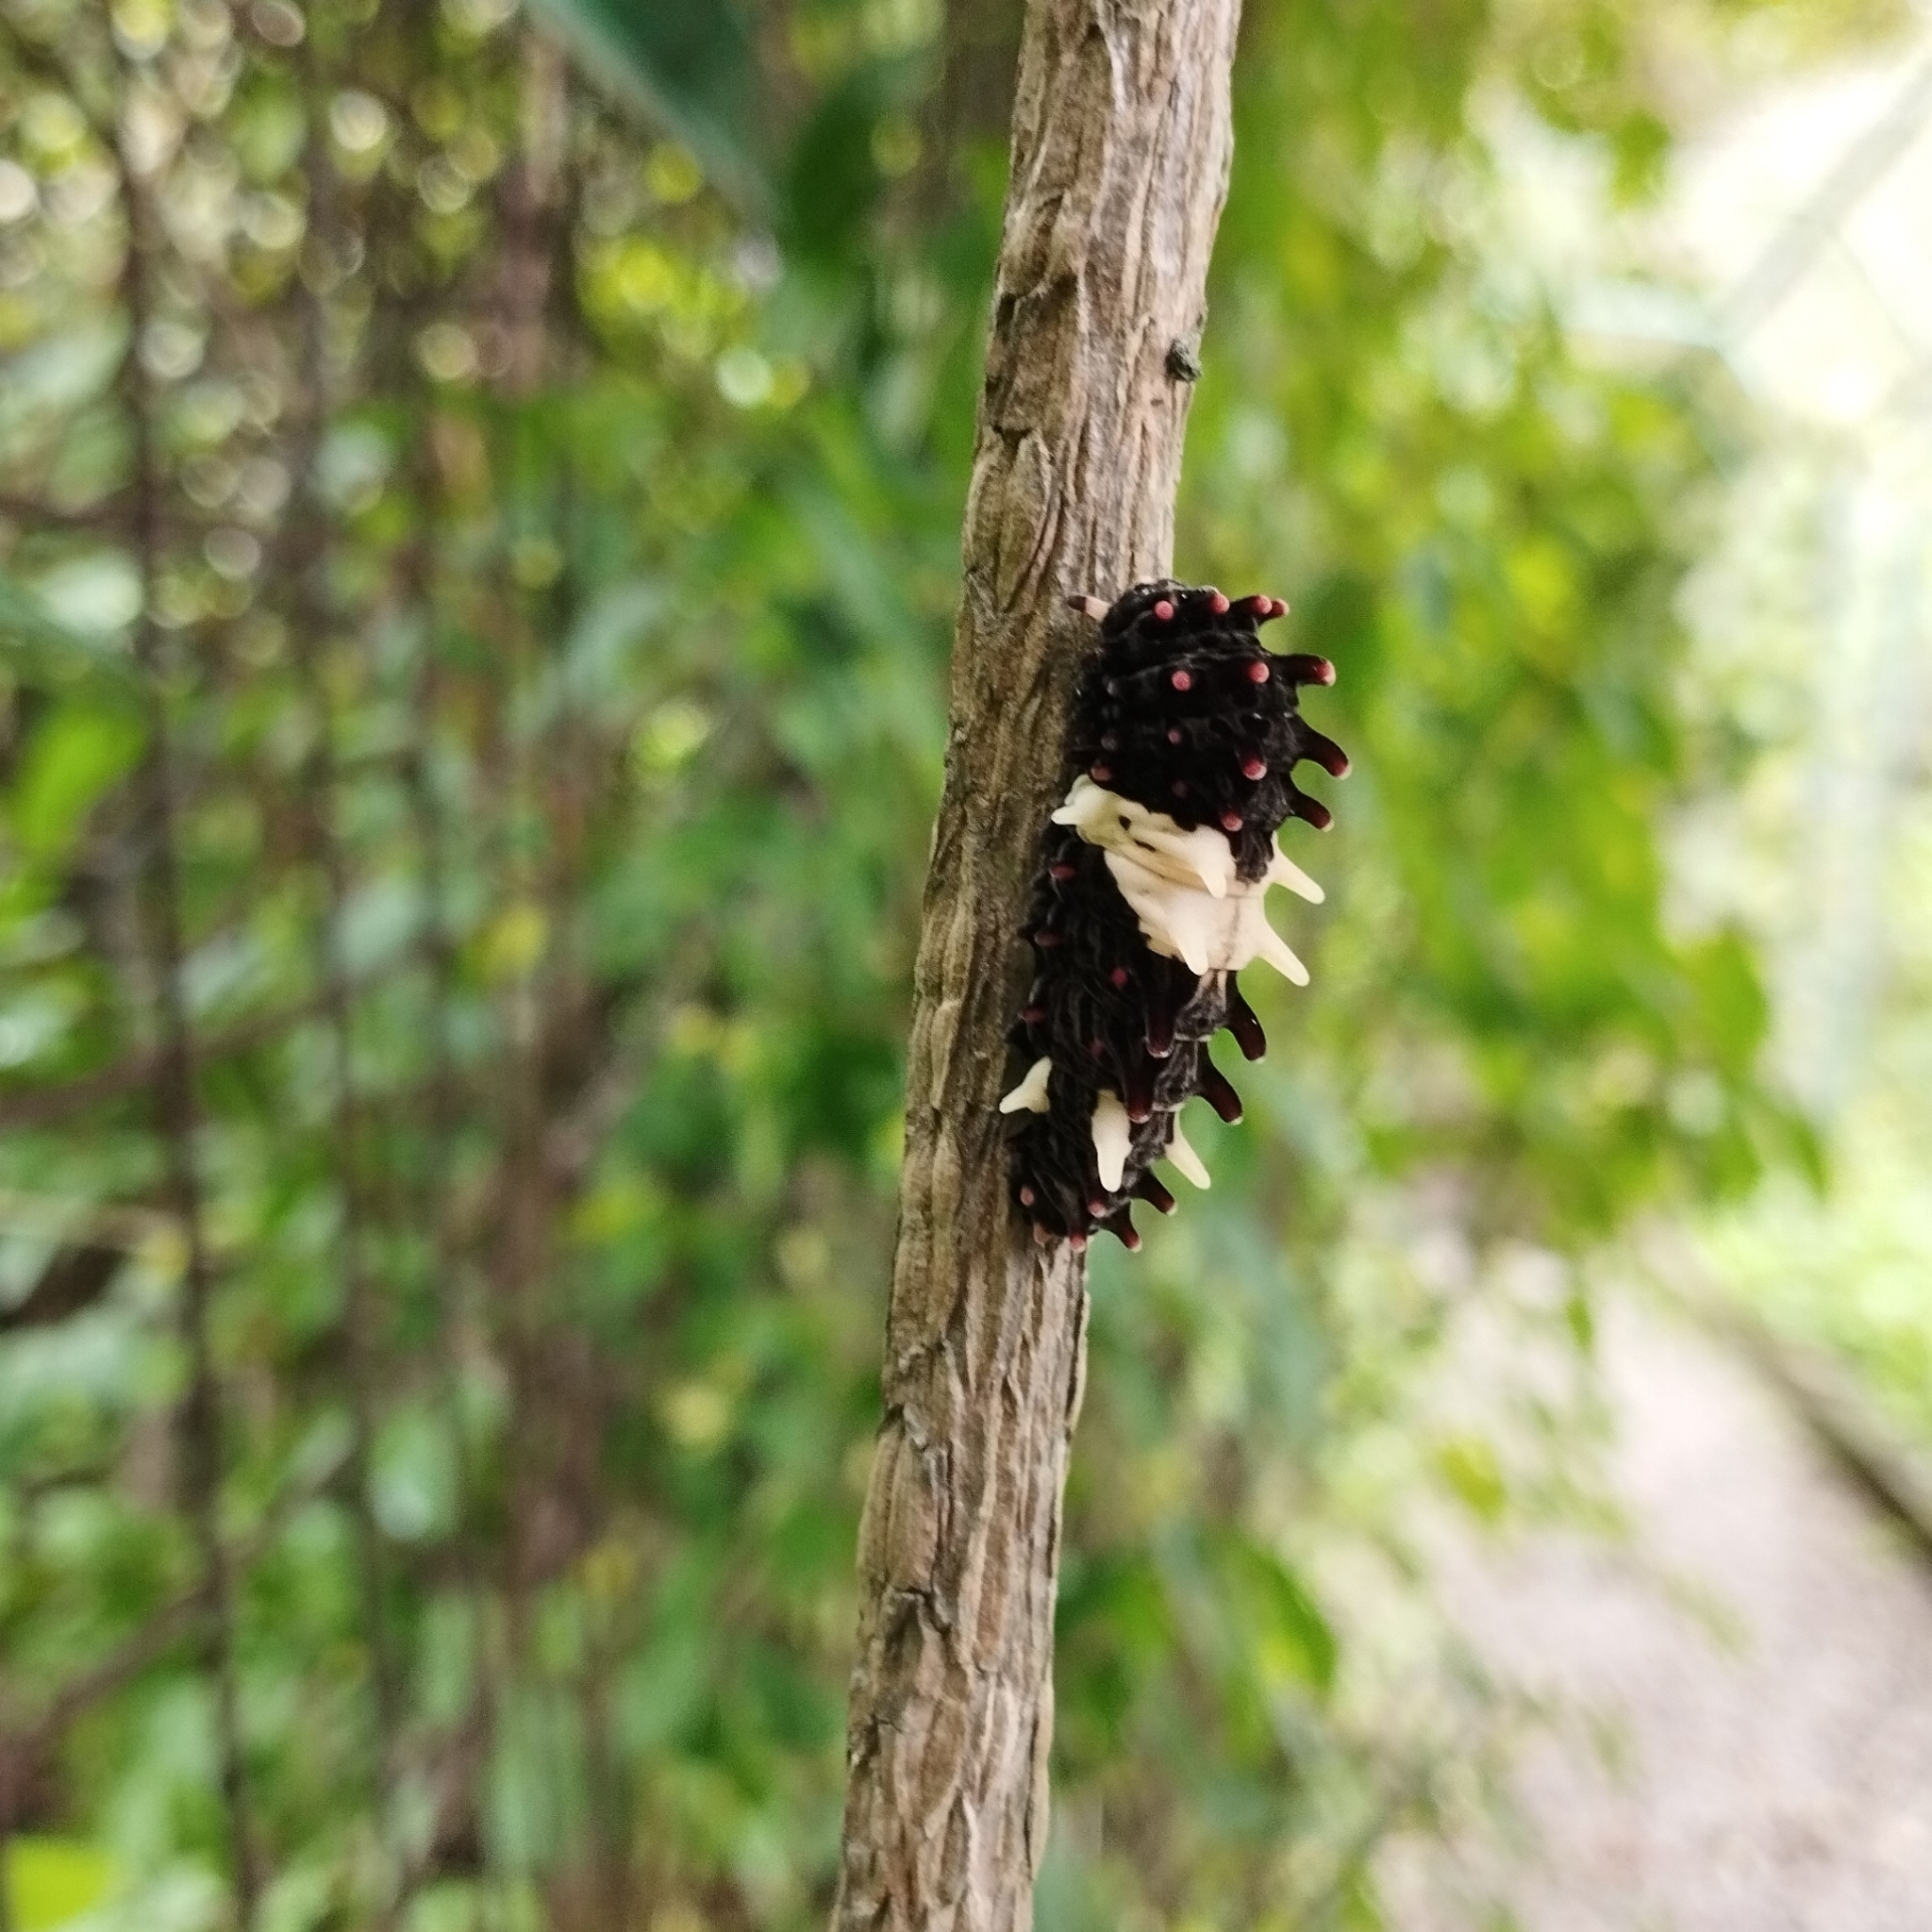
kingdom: Animalia
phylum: Arthropoda
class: Insecta
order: Lepidoptera
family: Papilionidae
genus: Byasa
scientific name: Byasa alcinous
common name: Chinese windmill
